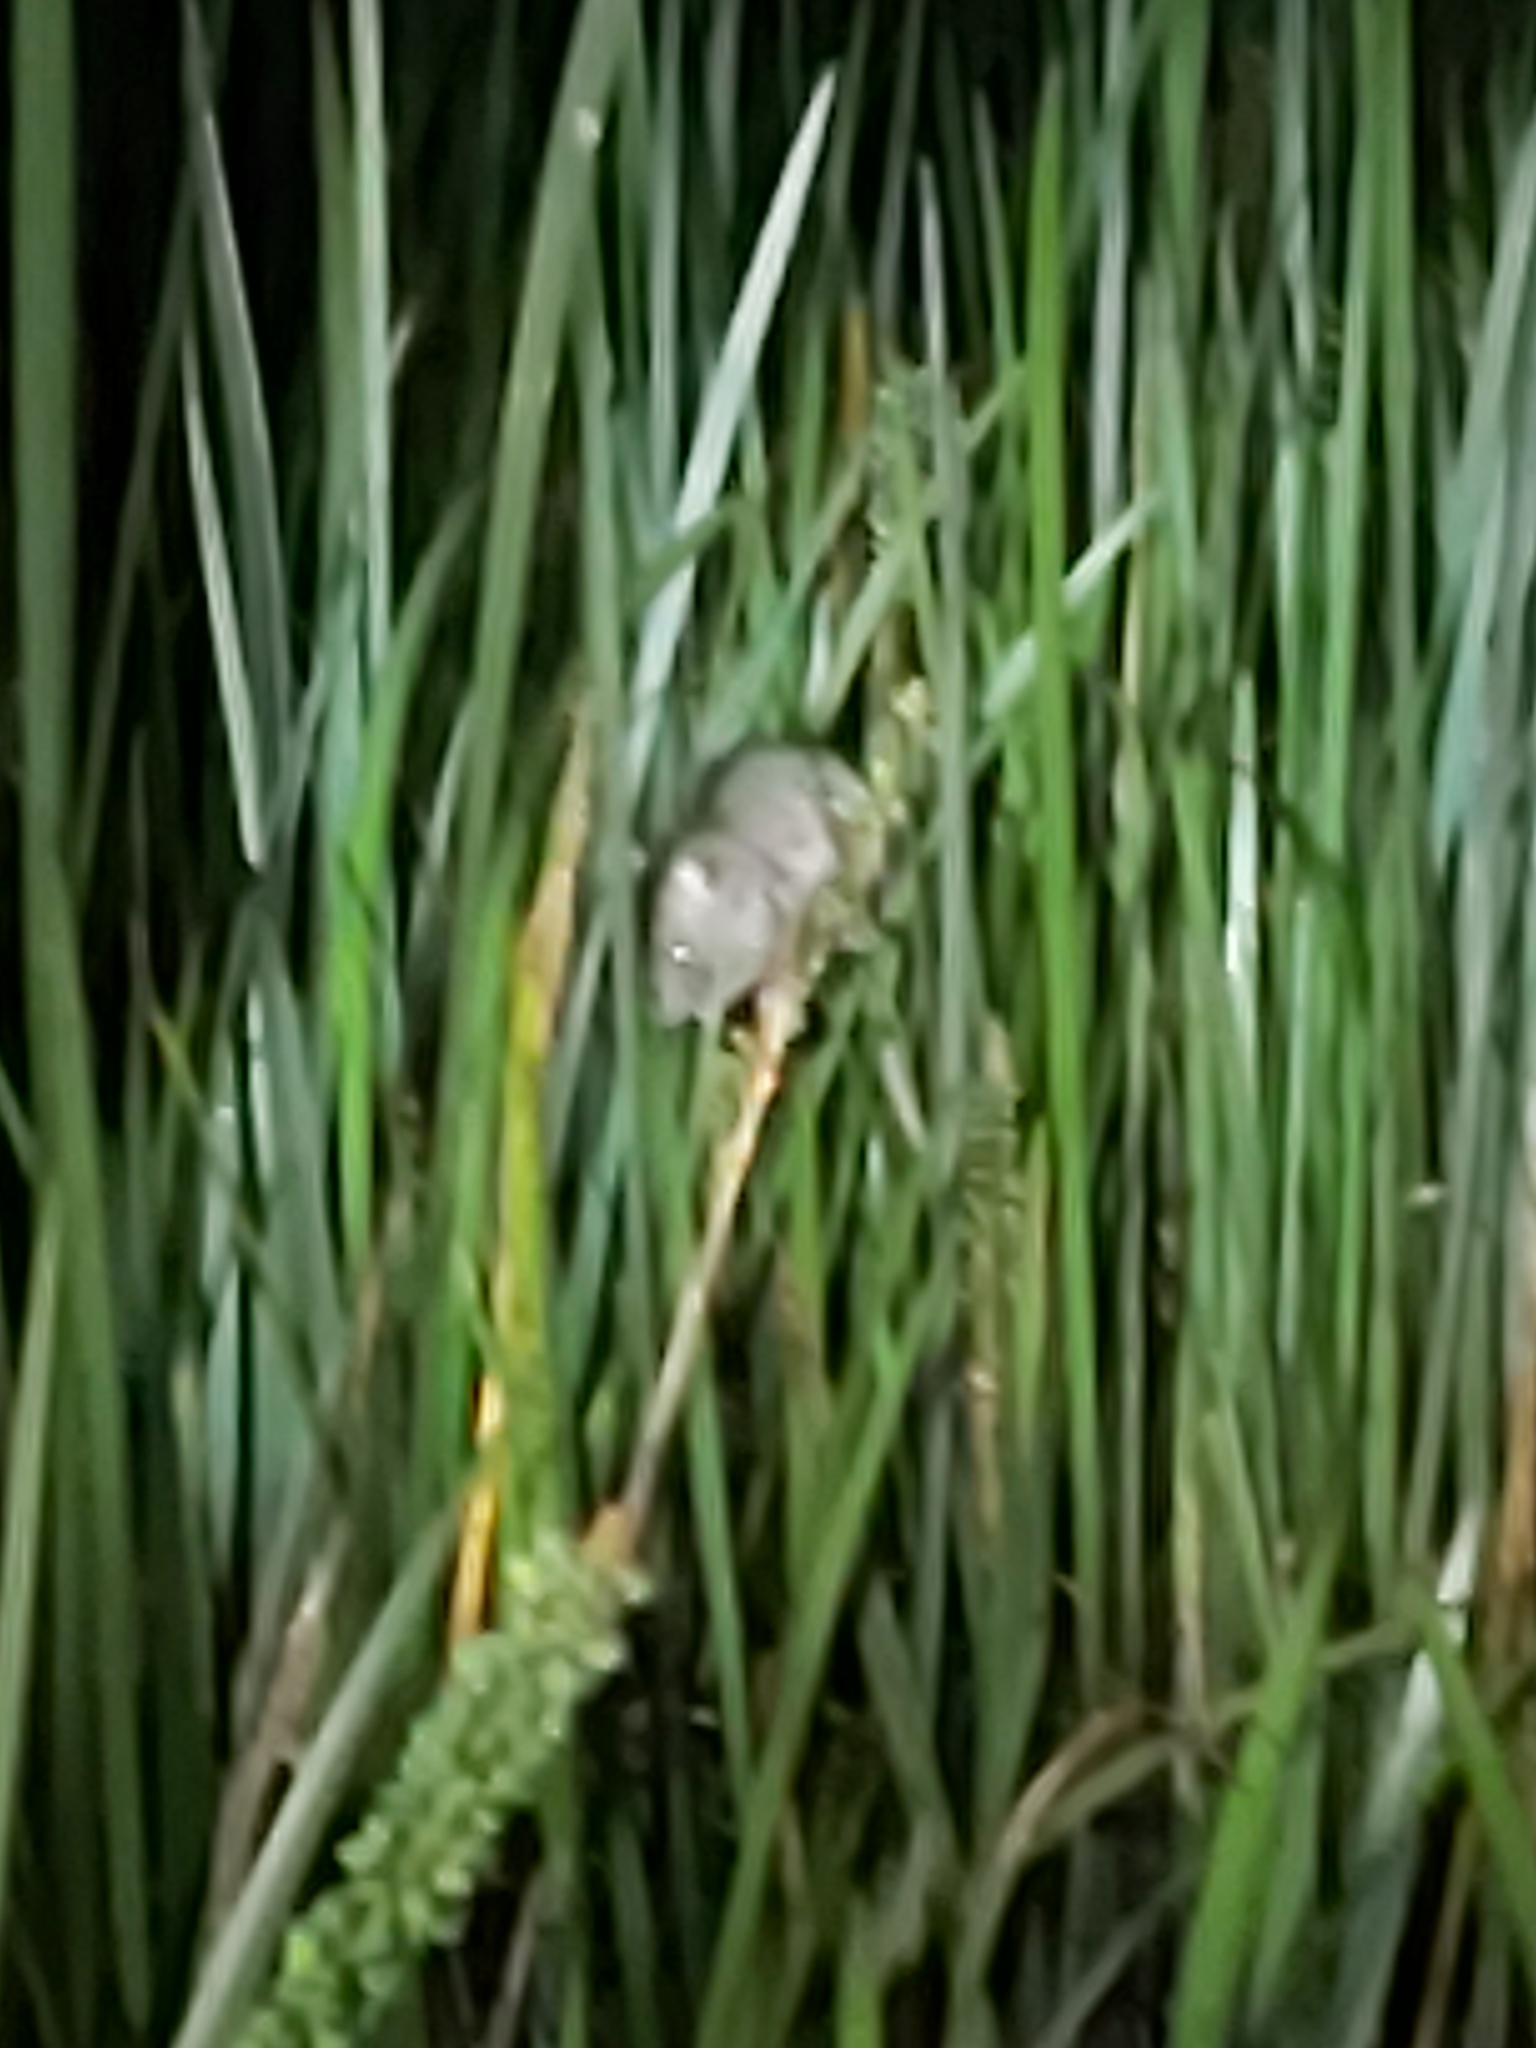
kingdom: Animalia
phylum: Chordata
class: Mammalia
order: Rodentia
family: Muridae
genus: Rattus
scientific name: Rattus rattus
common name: Black rat
